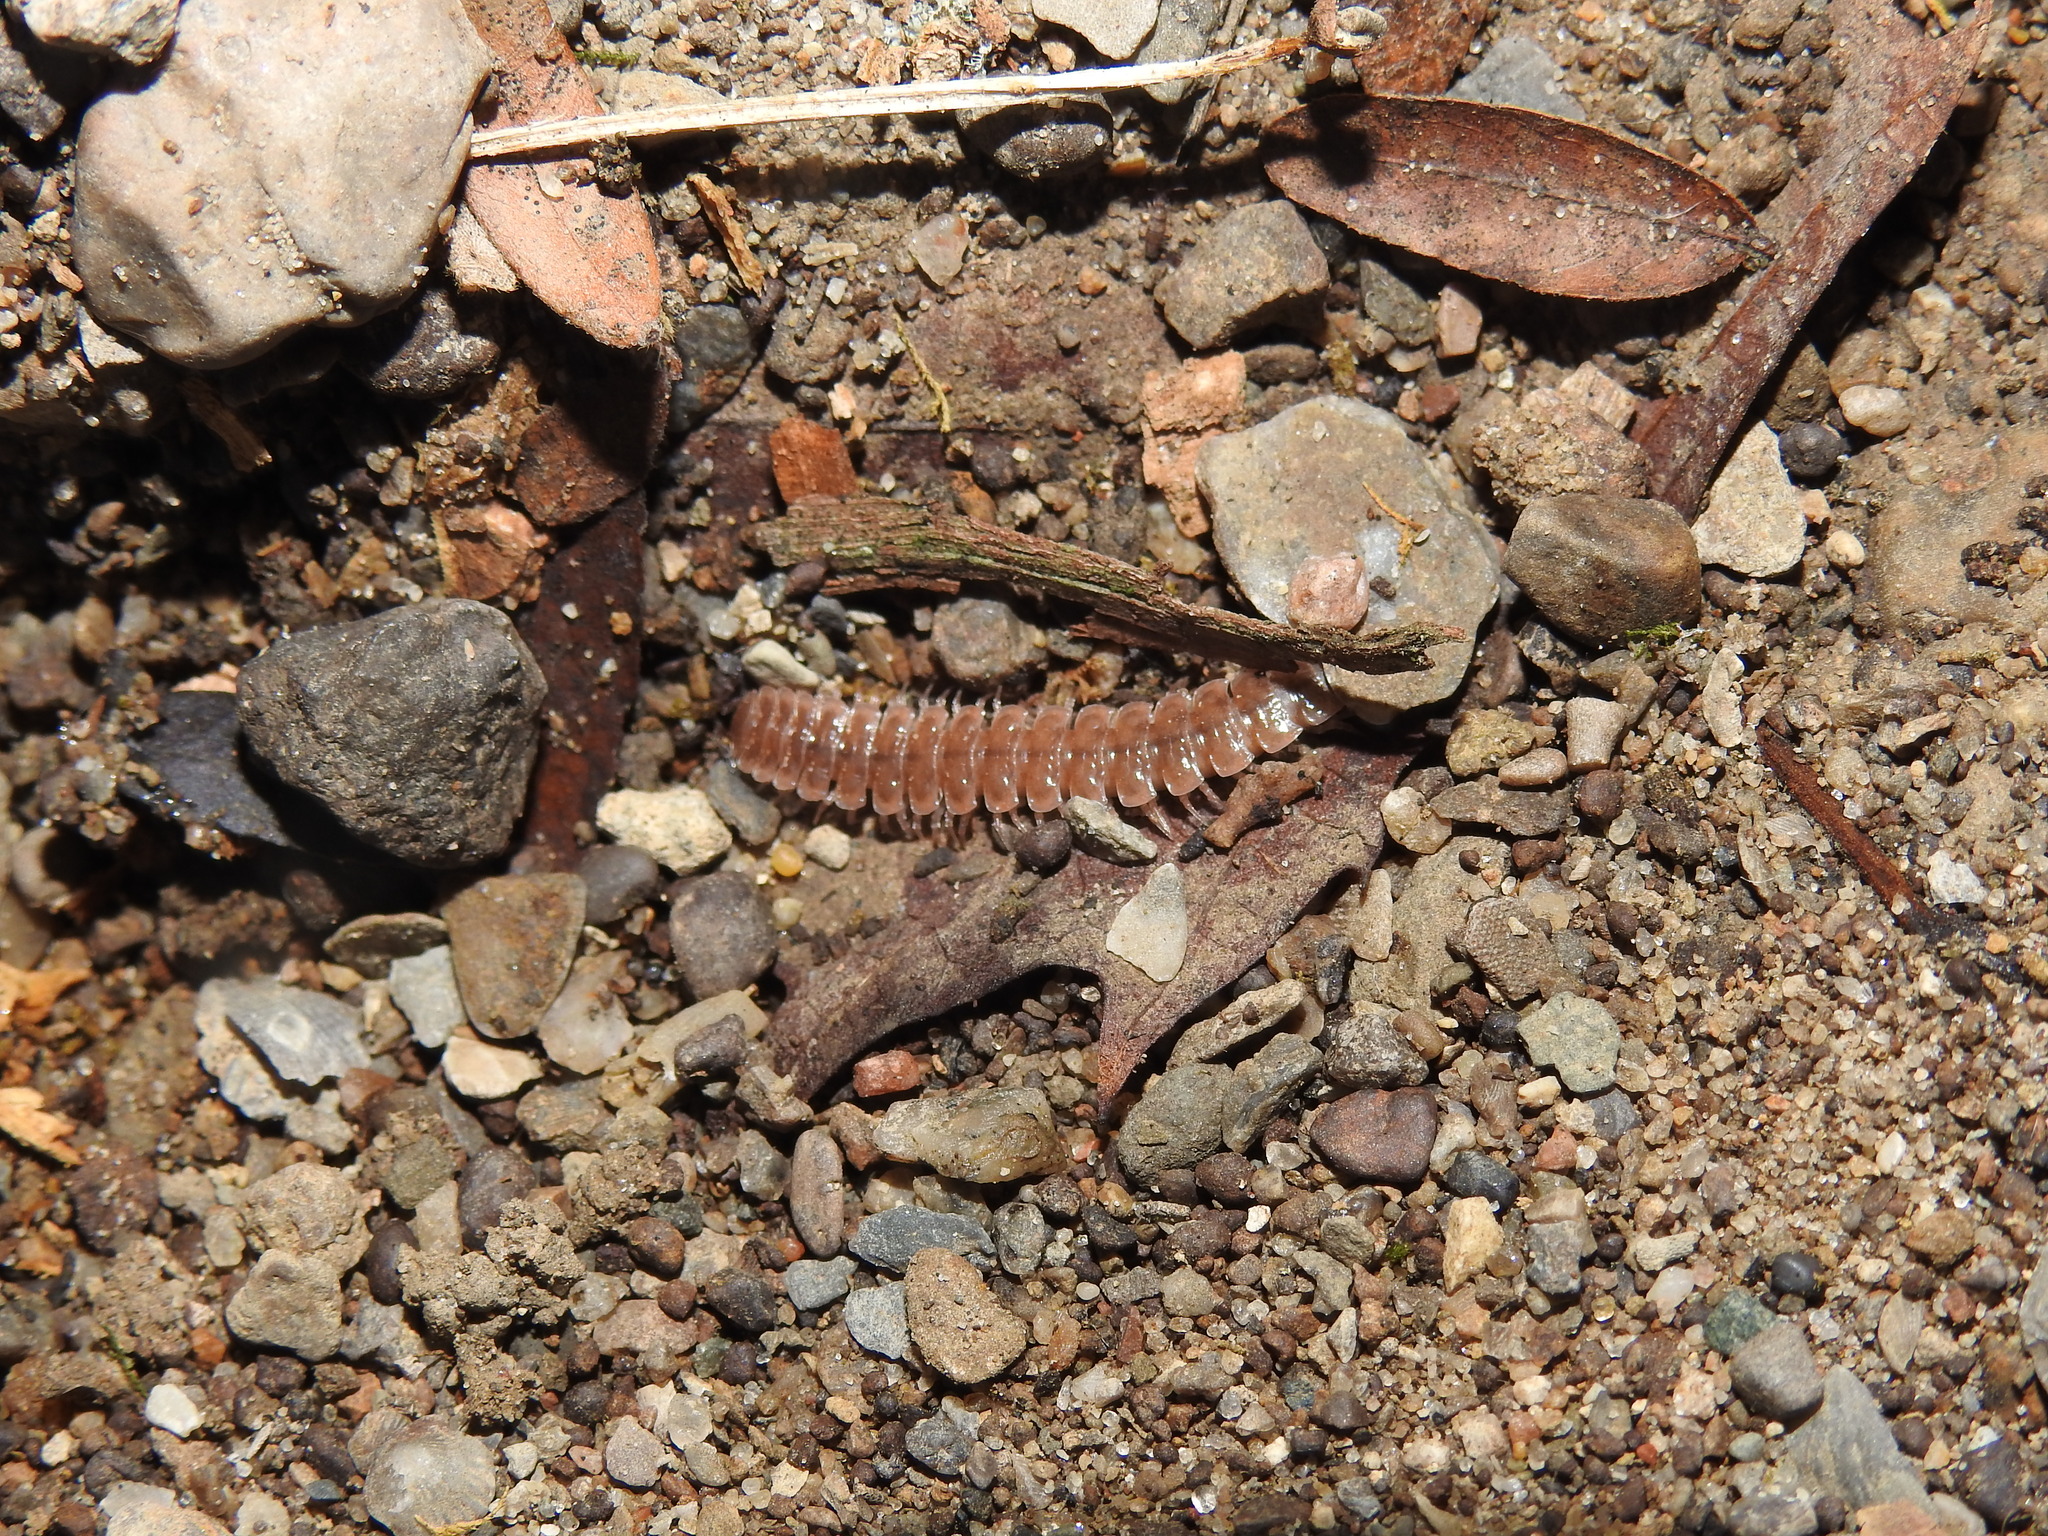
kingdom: Animalia
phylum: Arthropoda
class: Diplopoda
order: Polydesmida
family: Polydesmidae
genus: Pseudopolydesmus
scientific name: Pseudopolydesmus serratus
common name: Common pink flat-back millipede
